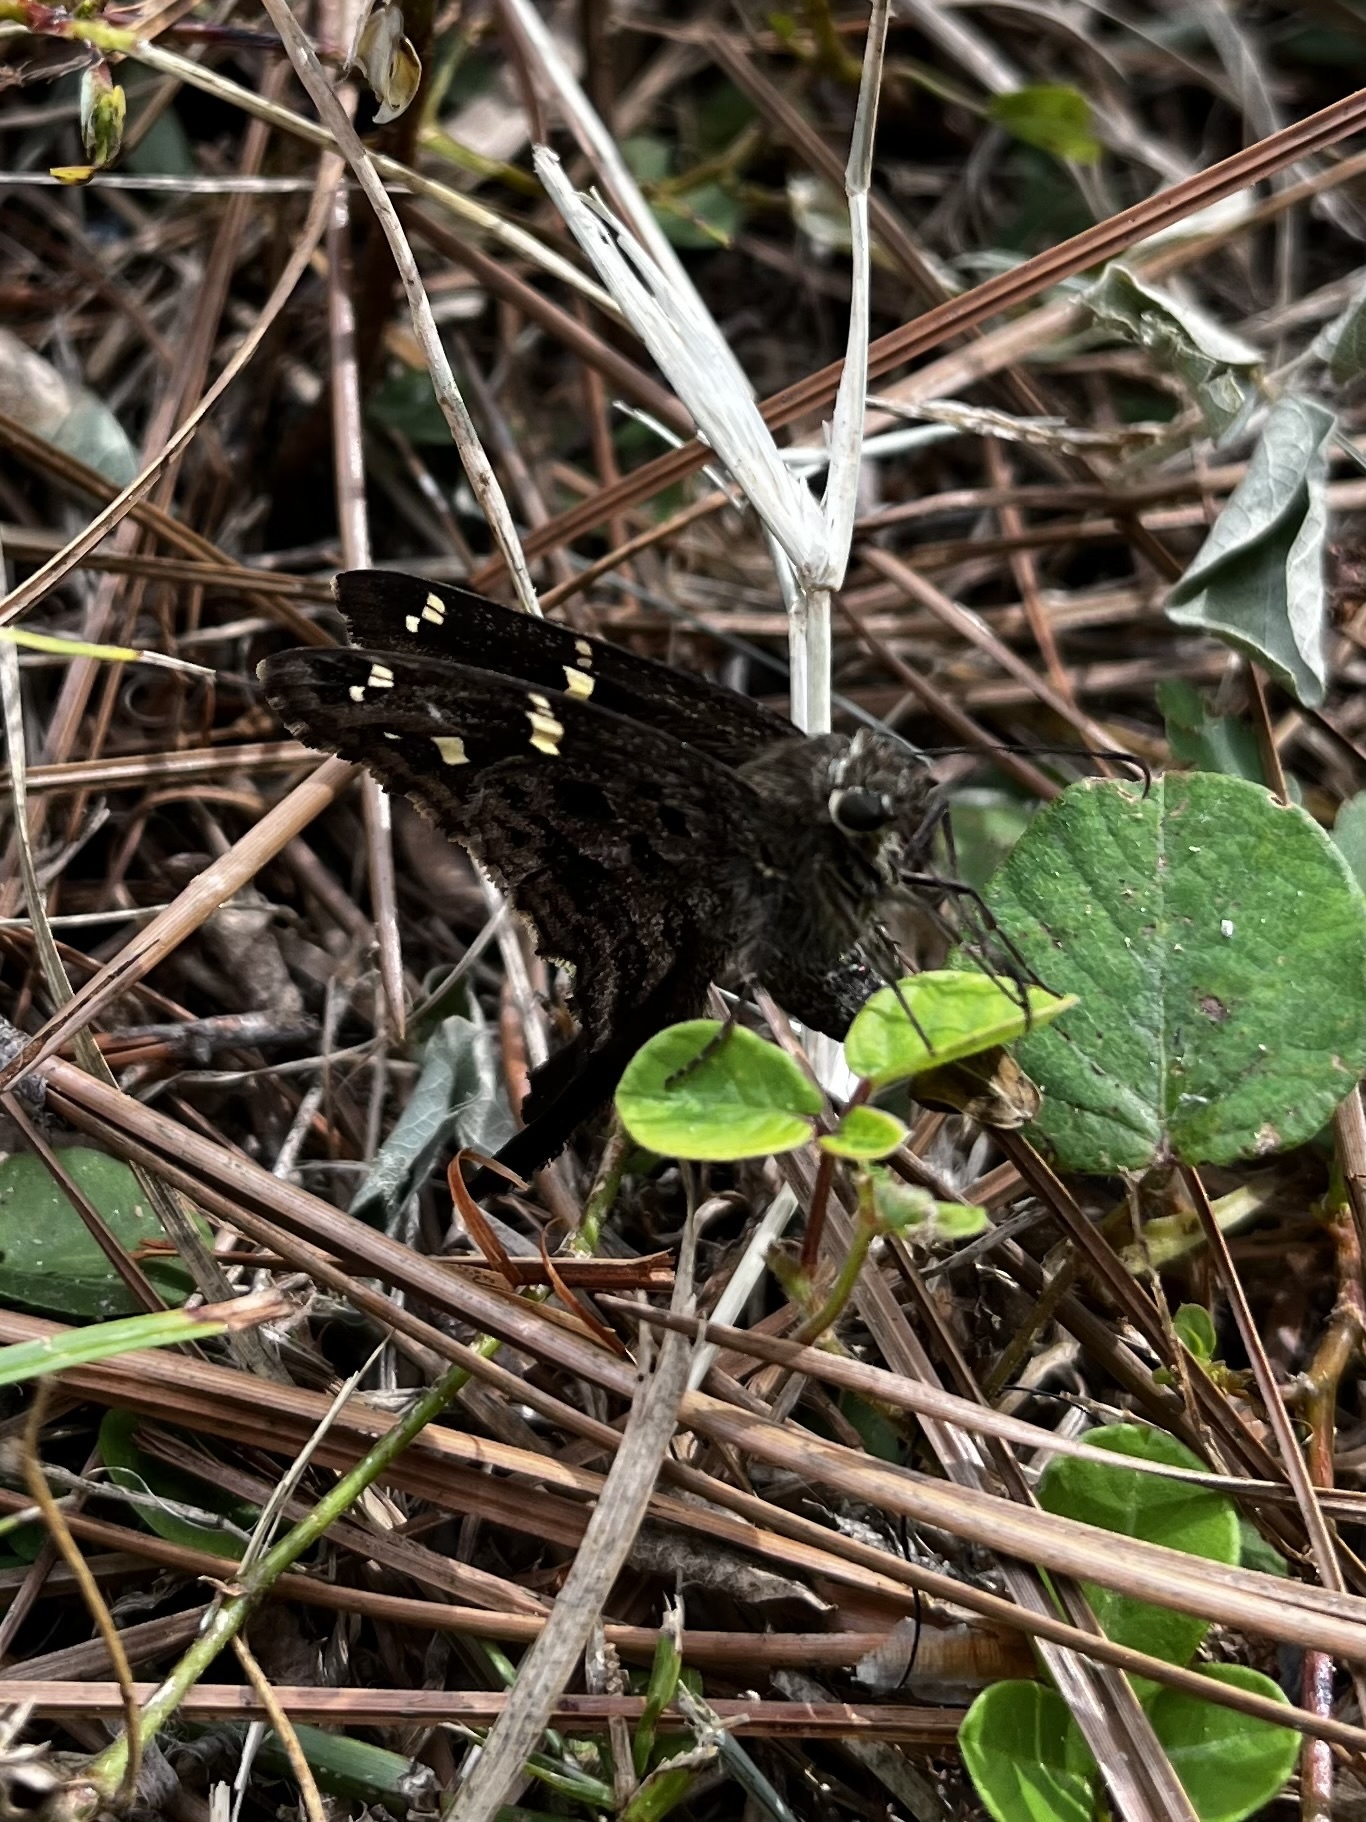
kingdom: Animalia
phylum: Arthropoda
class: Insecta
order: Lepidoptera
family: Hesperiidae
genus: Thorybes
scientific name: Thorybes
